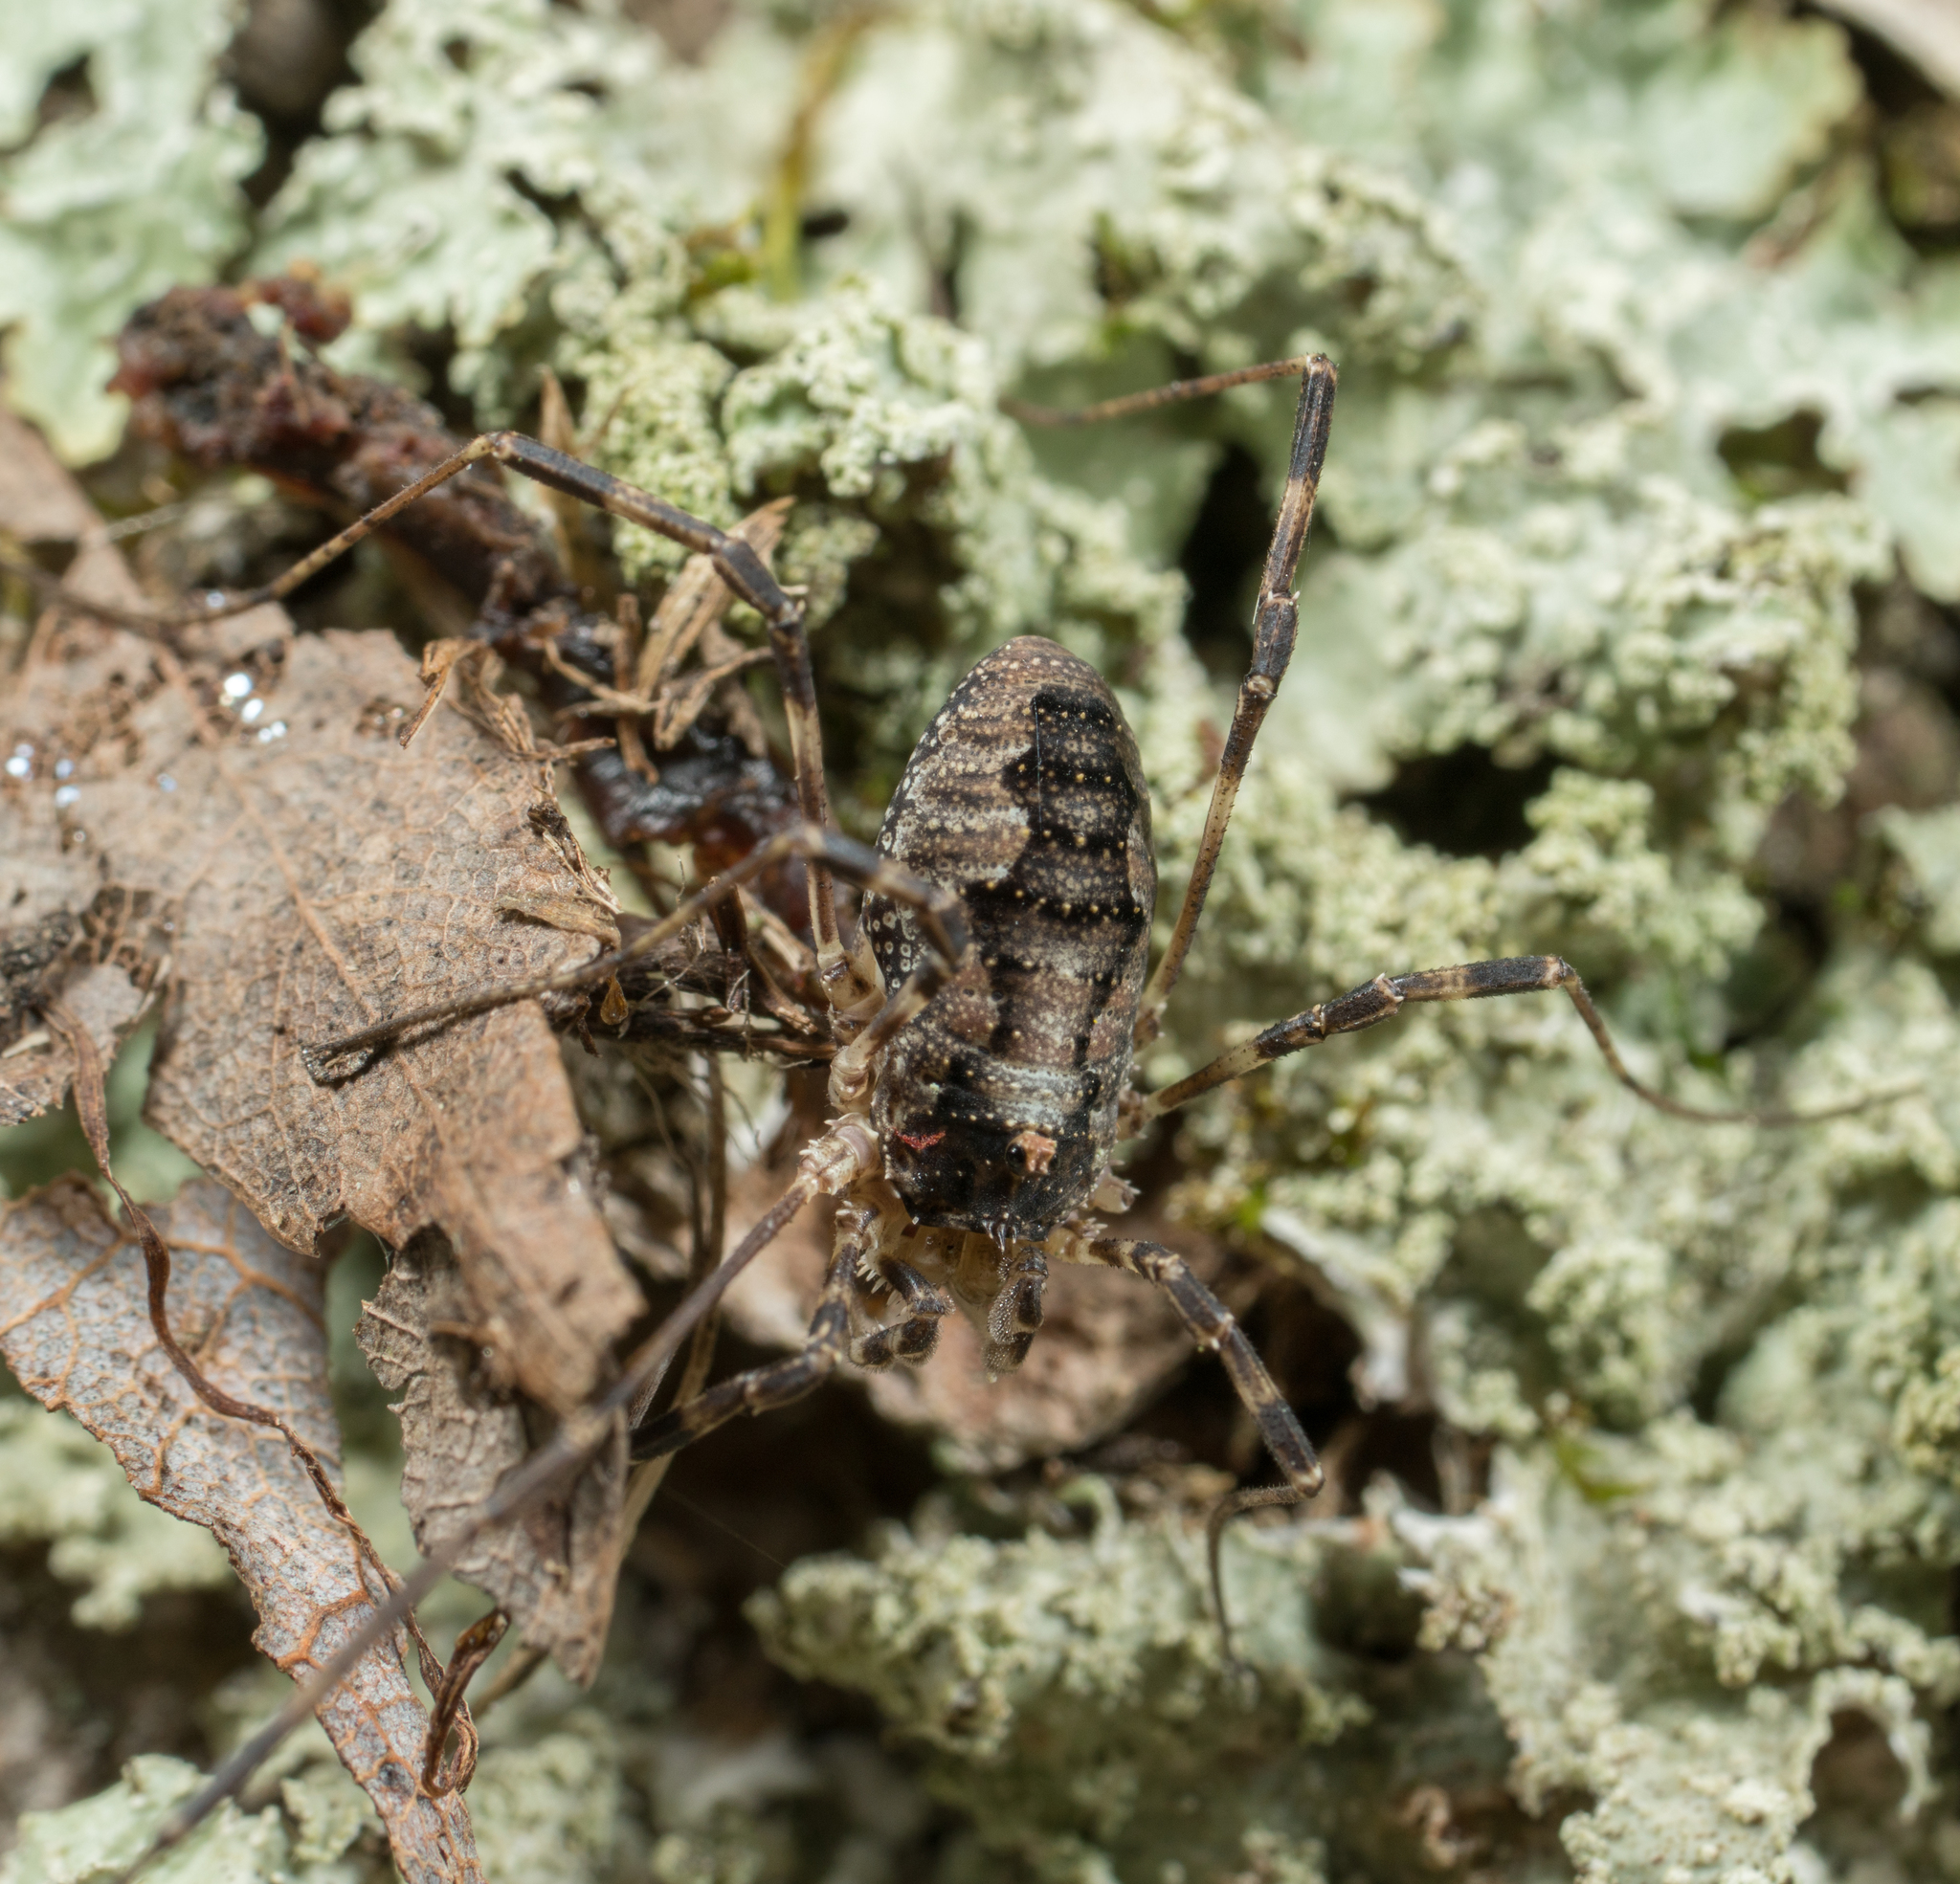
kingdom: Animalia
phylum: Arthropoda
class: Arachnida
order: Opiliones
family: Phalangiidae
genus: Odiellus
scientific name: Odiellus pictus
